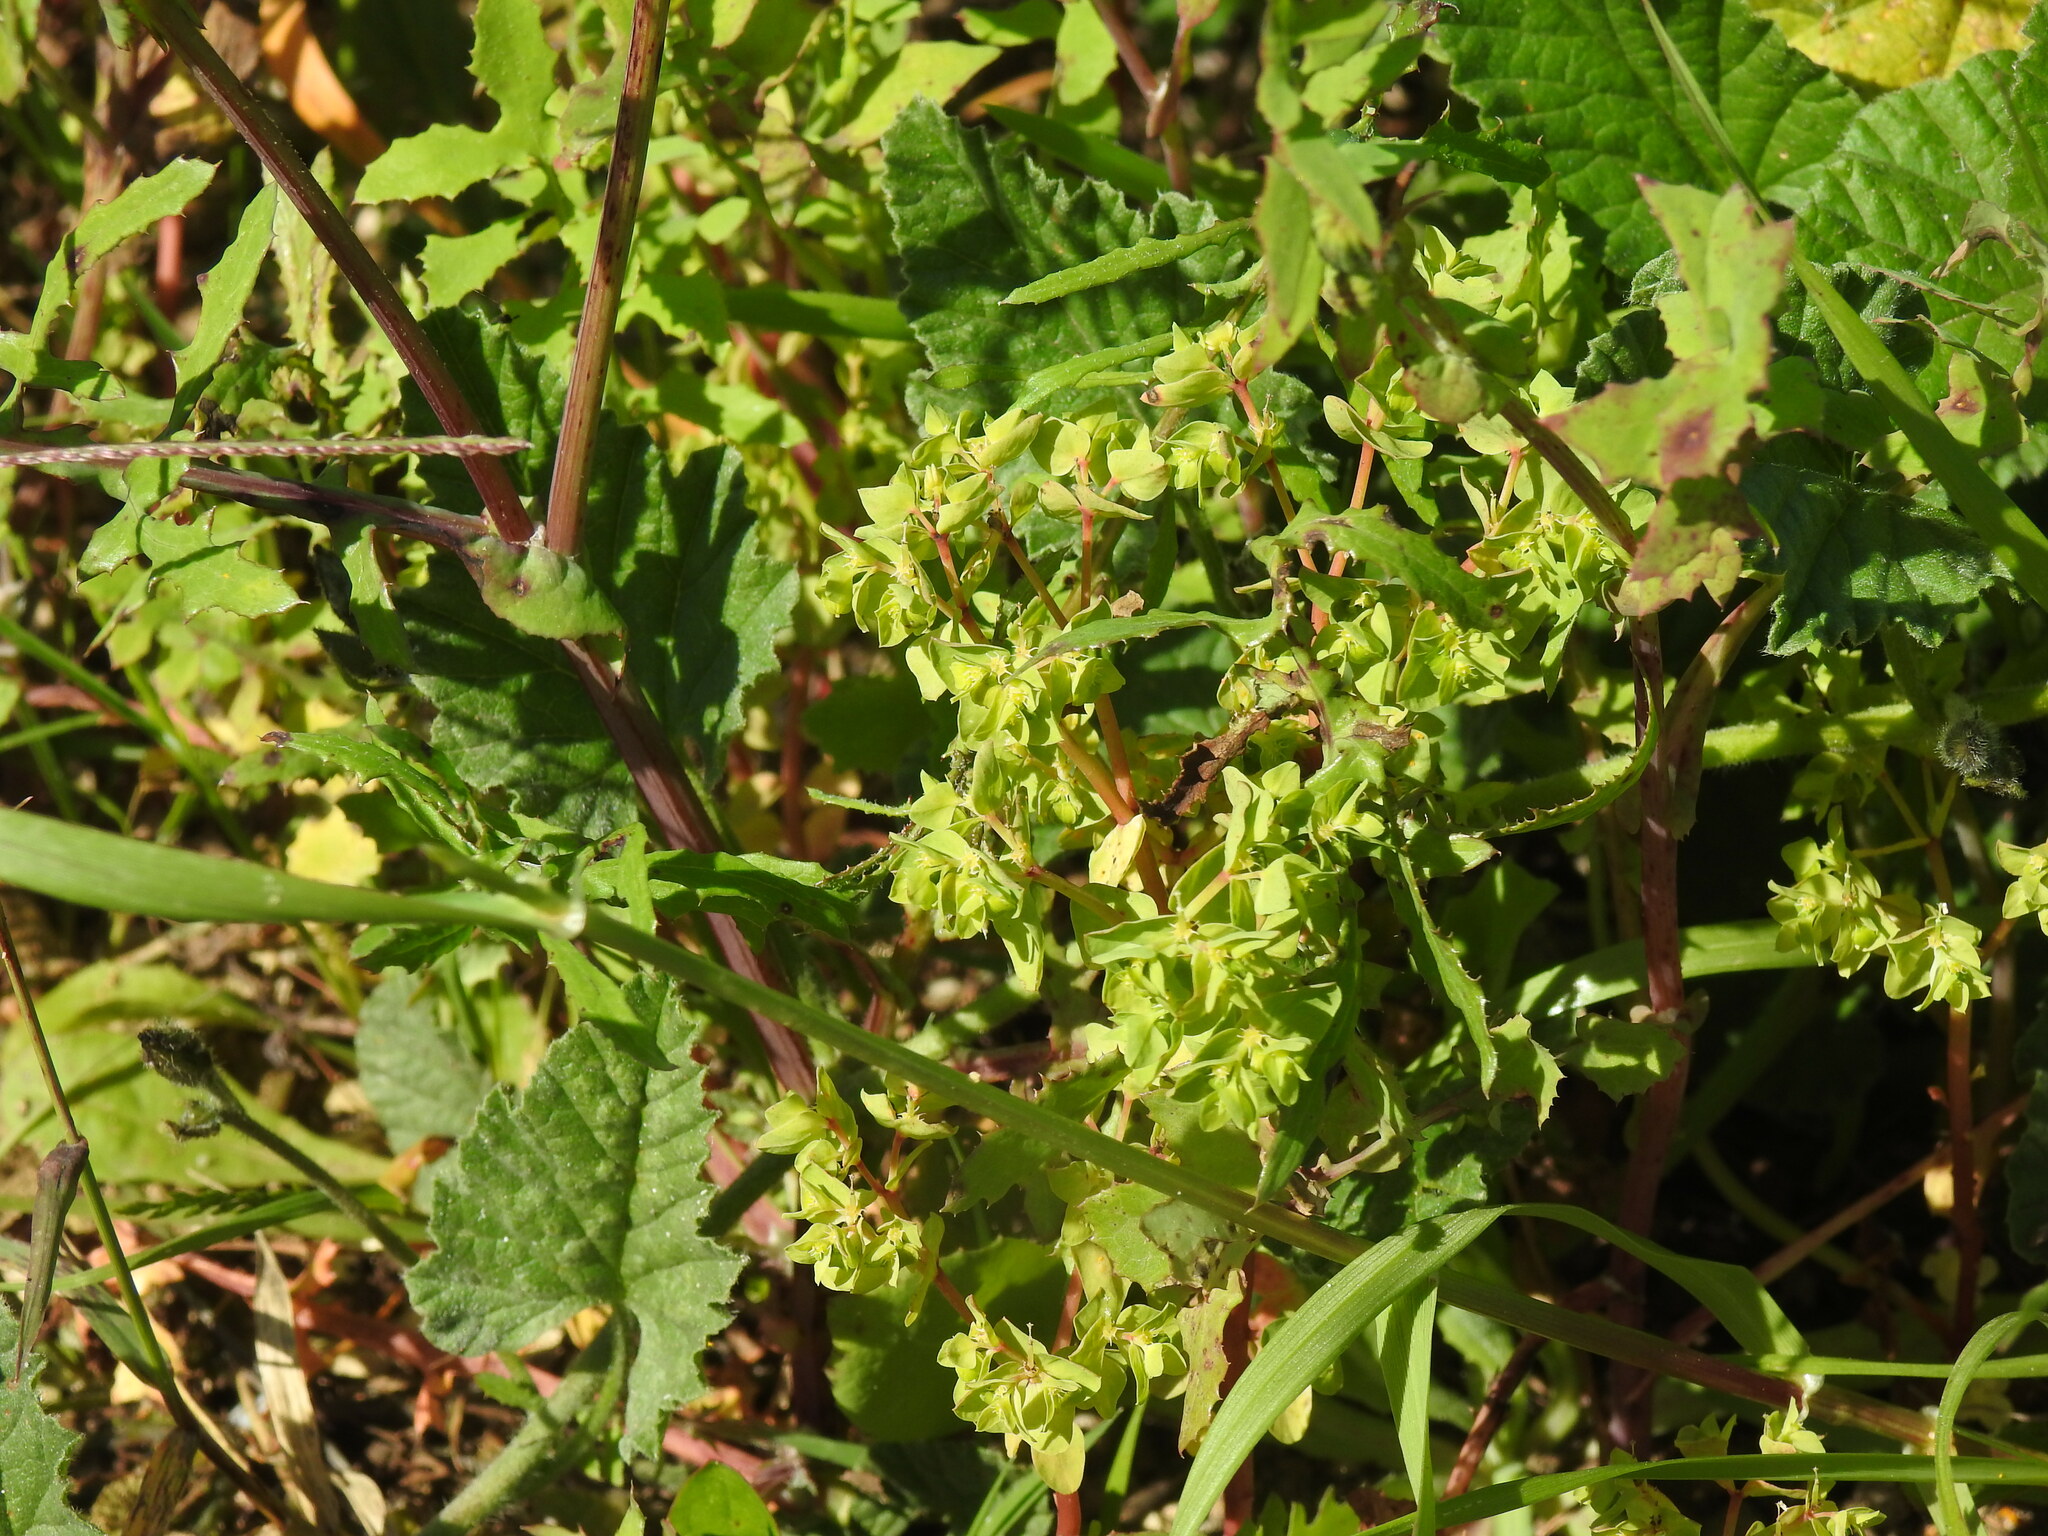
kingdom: Plantae
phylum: Tracheophyta
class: Magnoliopsida
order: Malpighiales
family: Euphorbiaceae
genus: Euphorbia
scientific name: Euphorbia peplus
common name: Petty spurge
